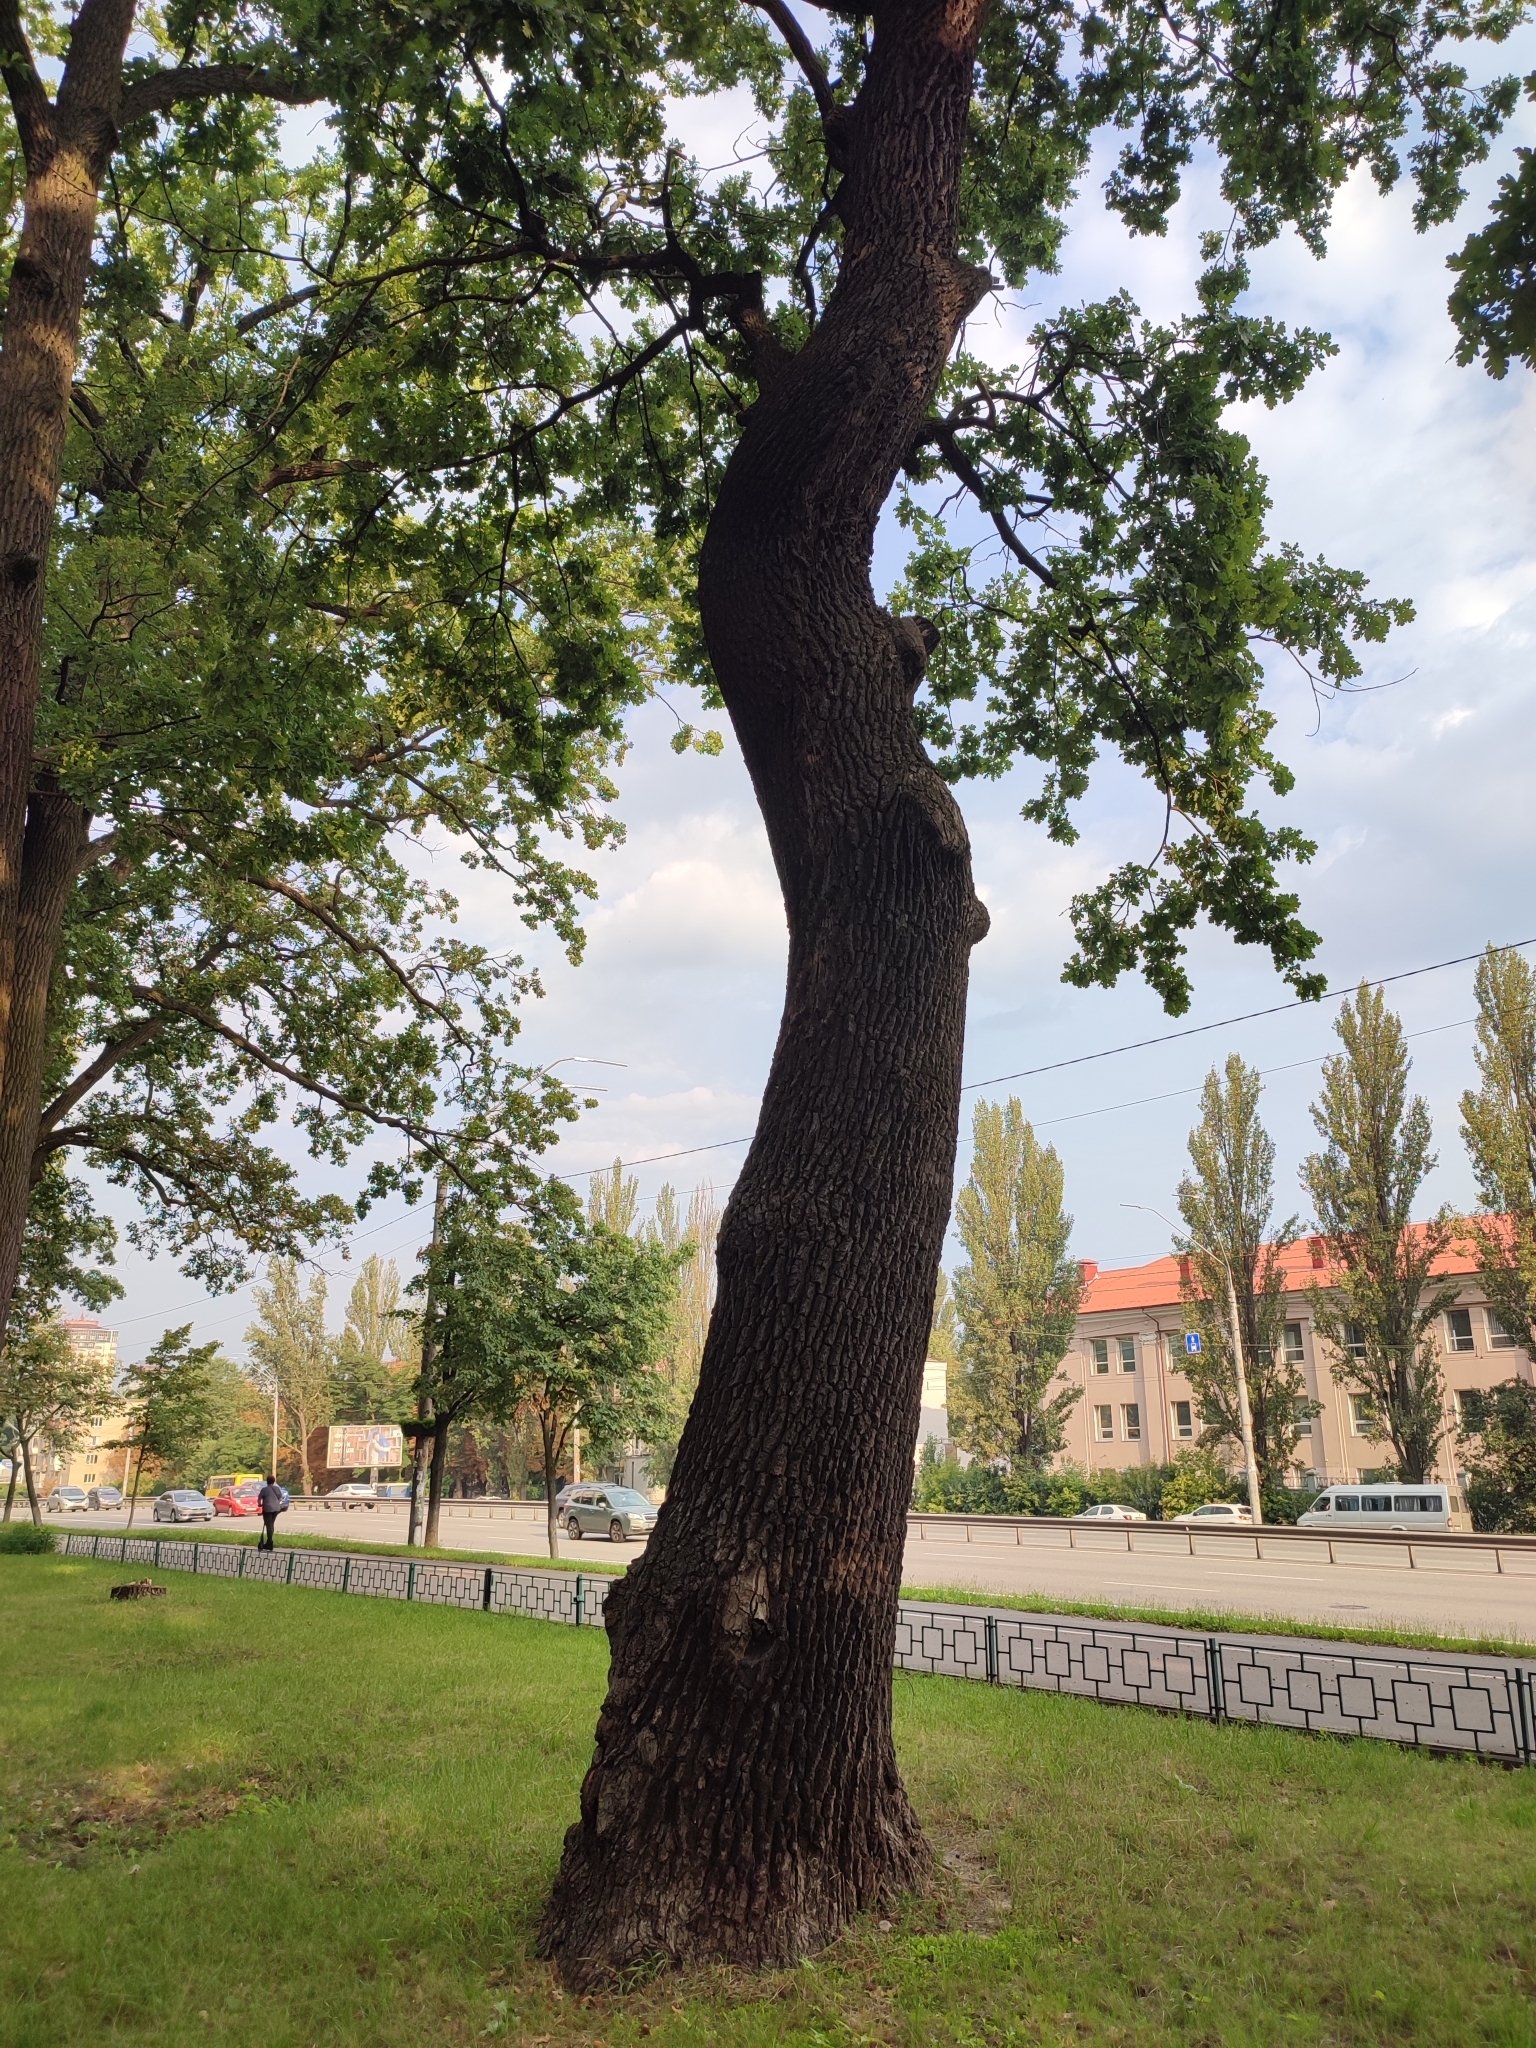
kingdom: Plantae
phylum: Tracheophyta
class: Magnoliopsida
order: Fagales
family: Fagaceae
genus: Quercus
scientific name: Quercus robur
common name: Pedunculate oak
